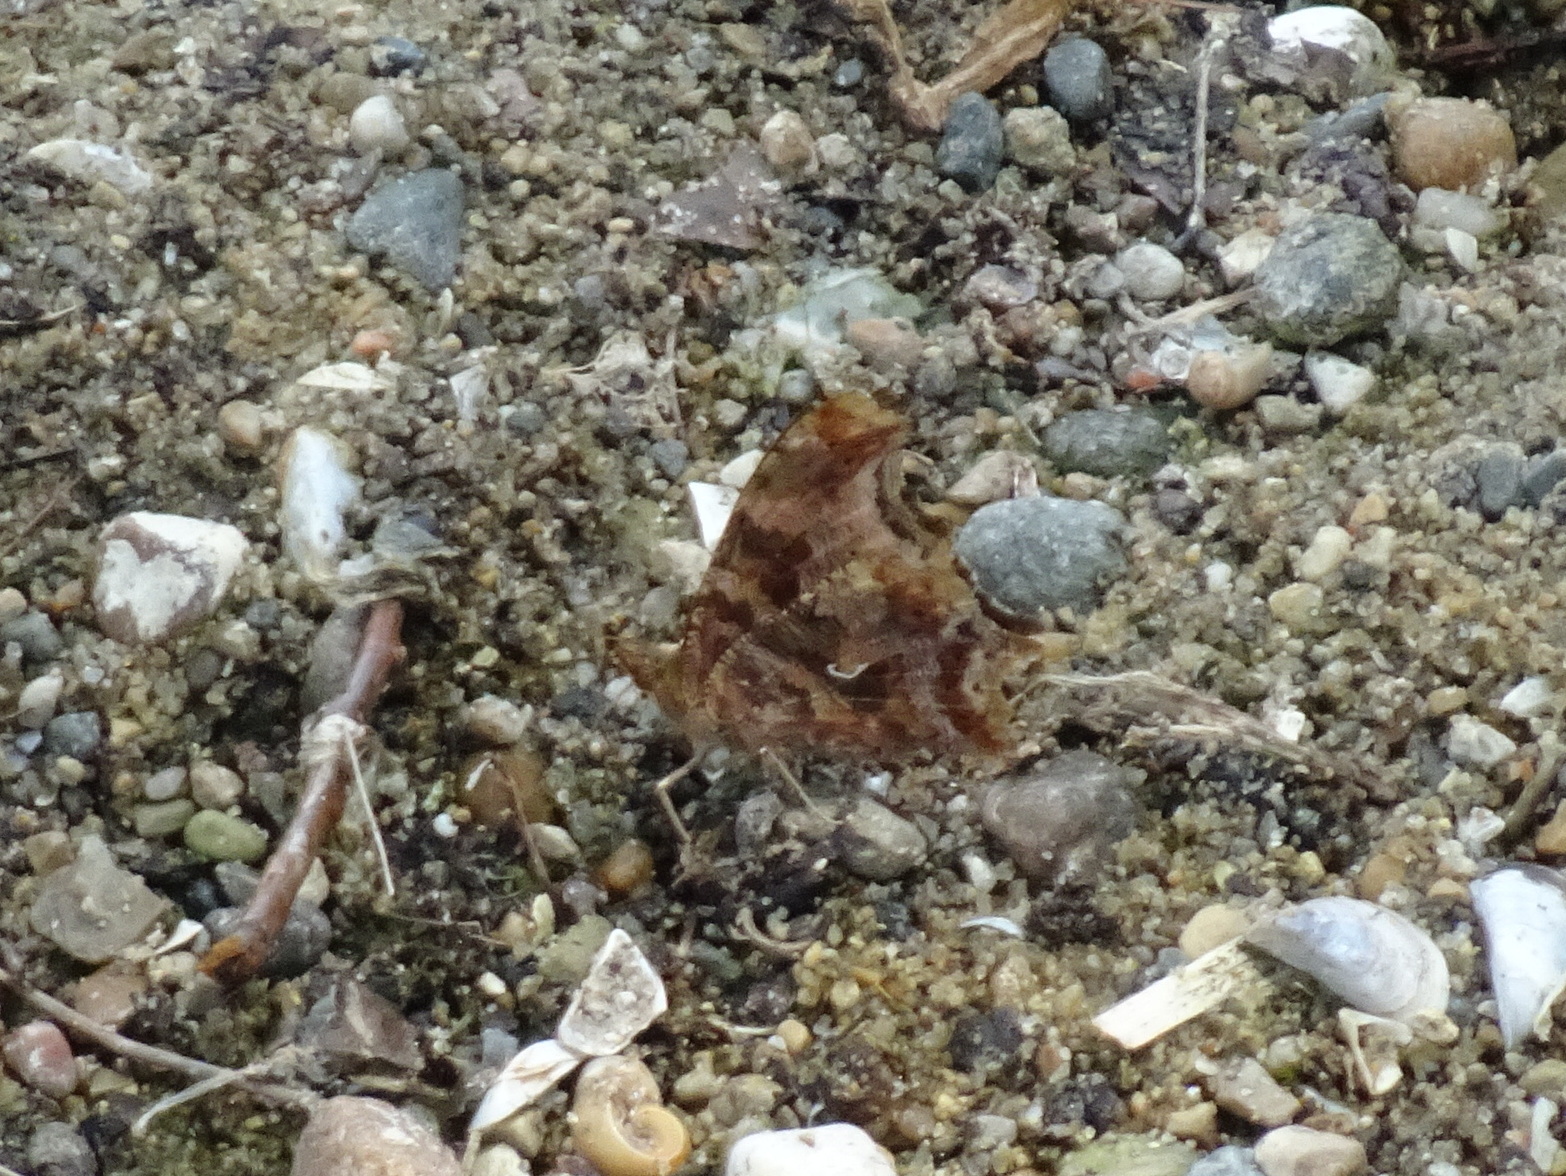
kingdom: Animalia
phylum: Arthropoda
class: Insecta
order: Lepidoptera
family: Nymphalidae
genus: Polygonia
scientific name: Polygonia comma
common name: Eastern comma
